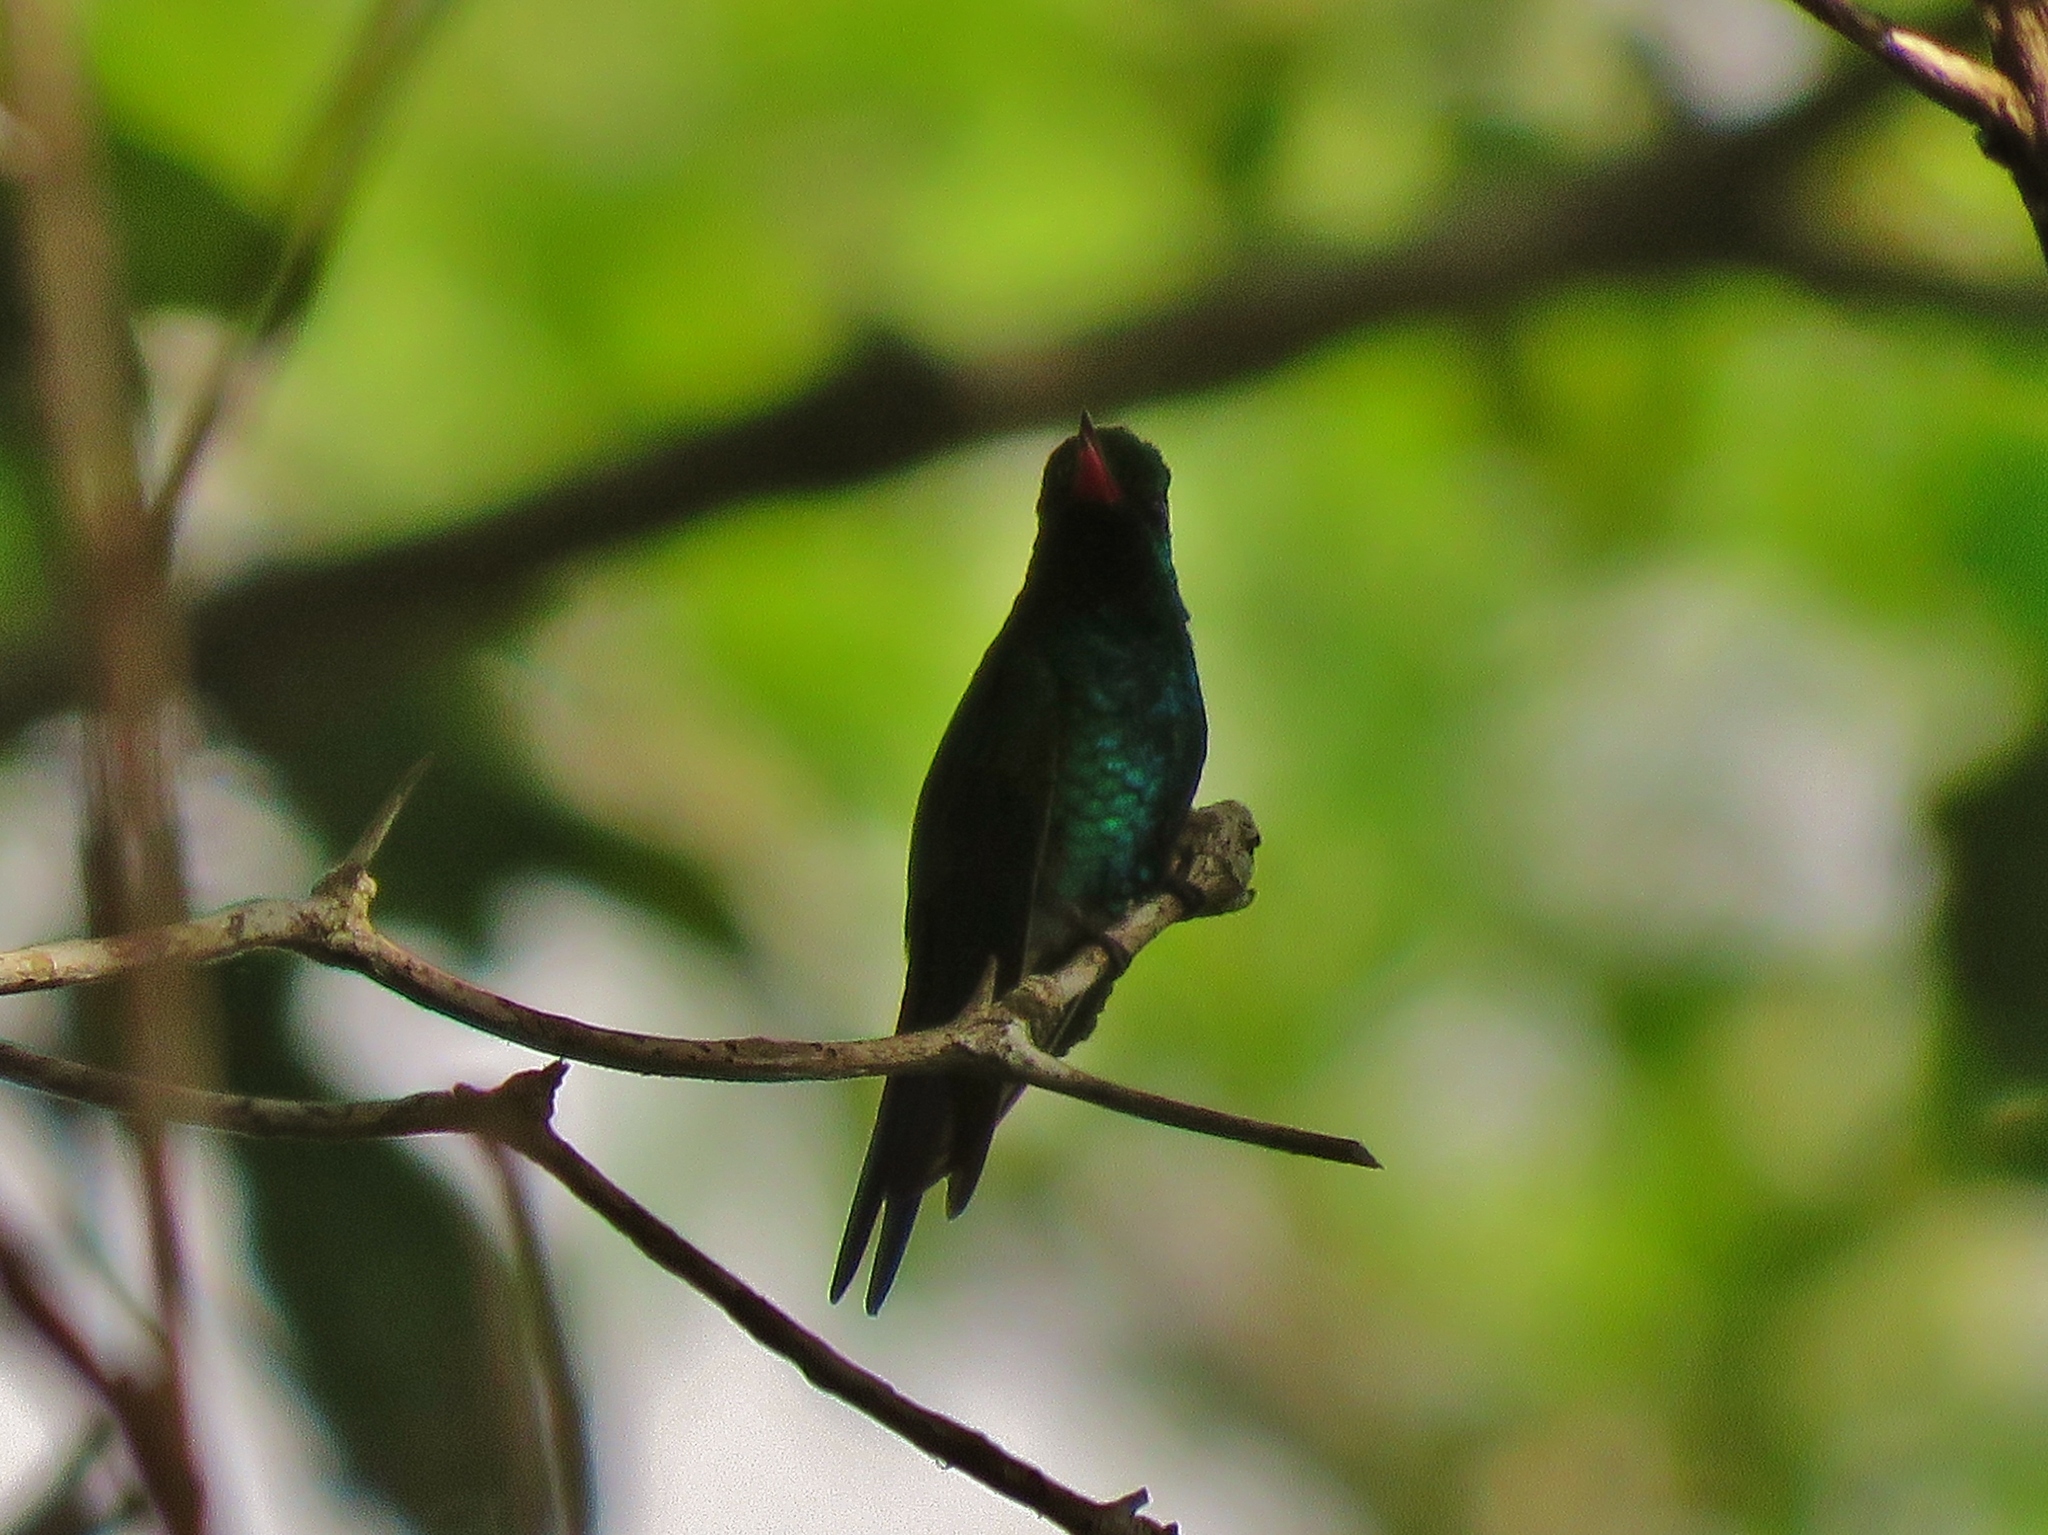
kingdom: Animalia
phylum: Chordata
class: Aves
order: Apodiformes
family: Trochilidae
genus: Cynanthus
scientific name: Cynanthus canivetii
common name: Canivet's emerald
